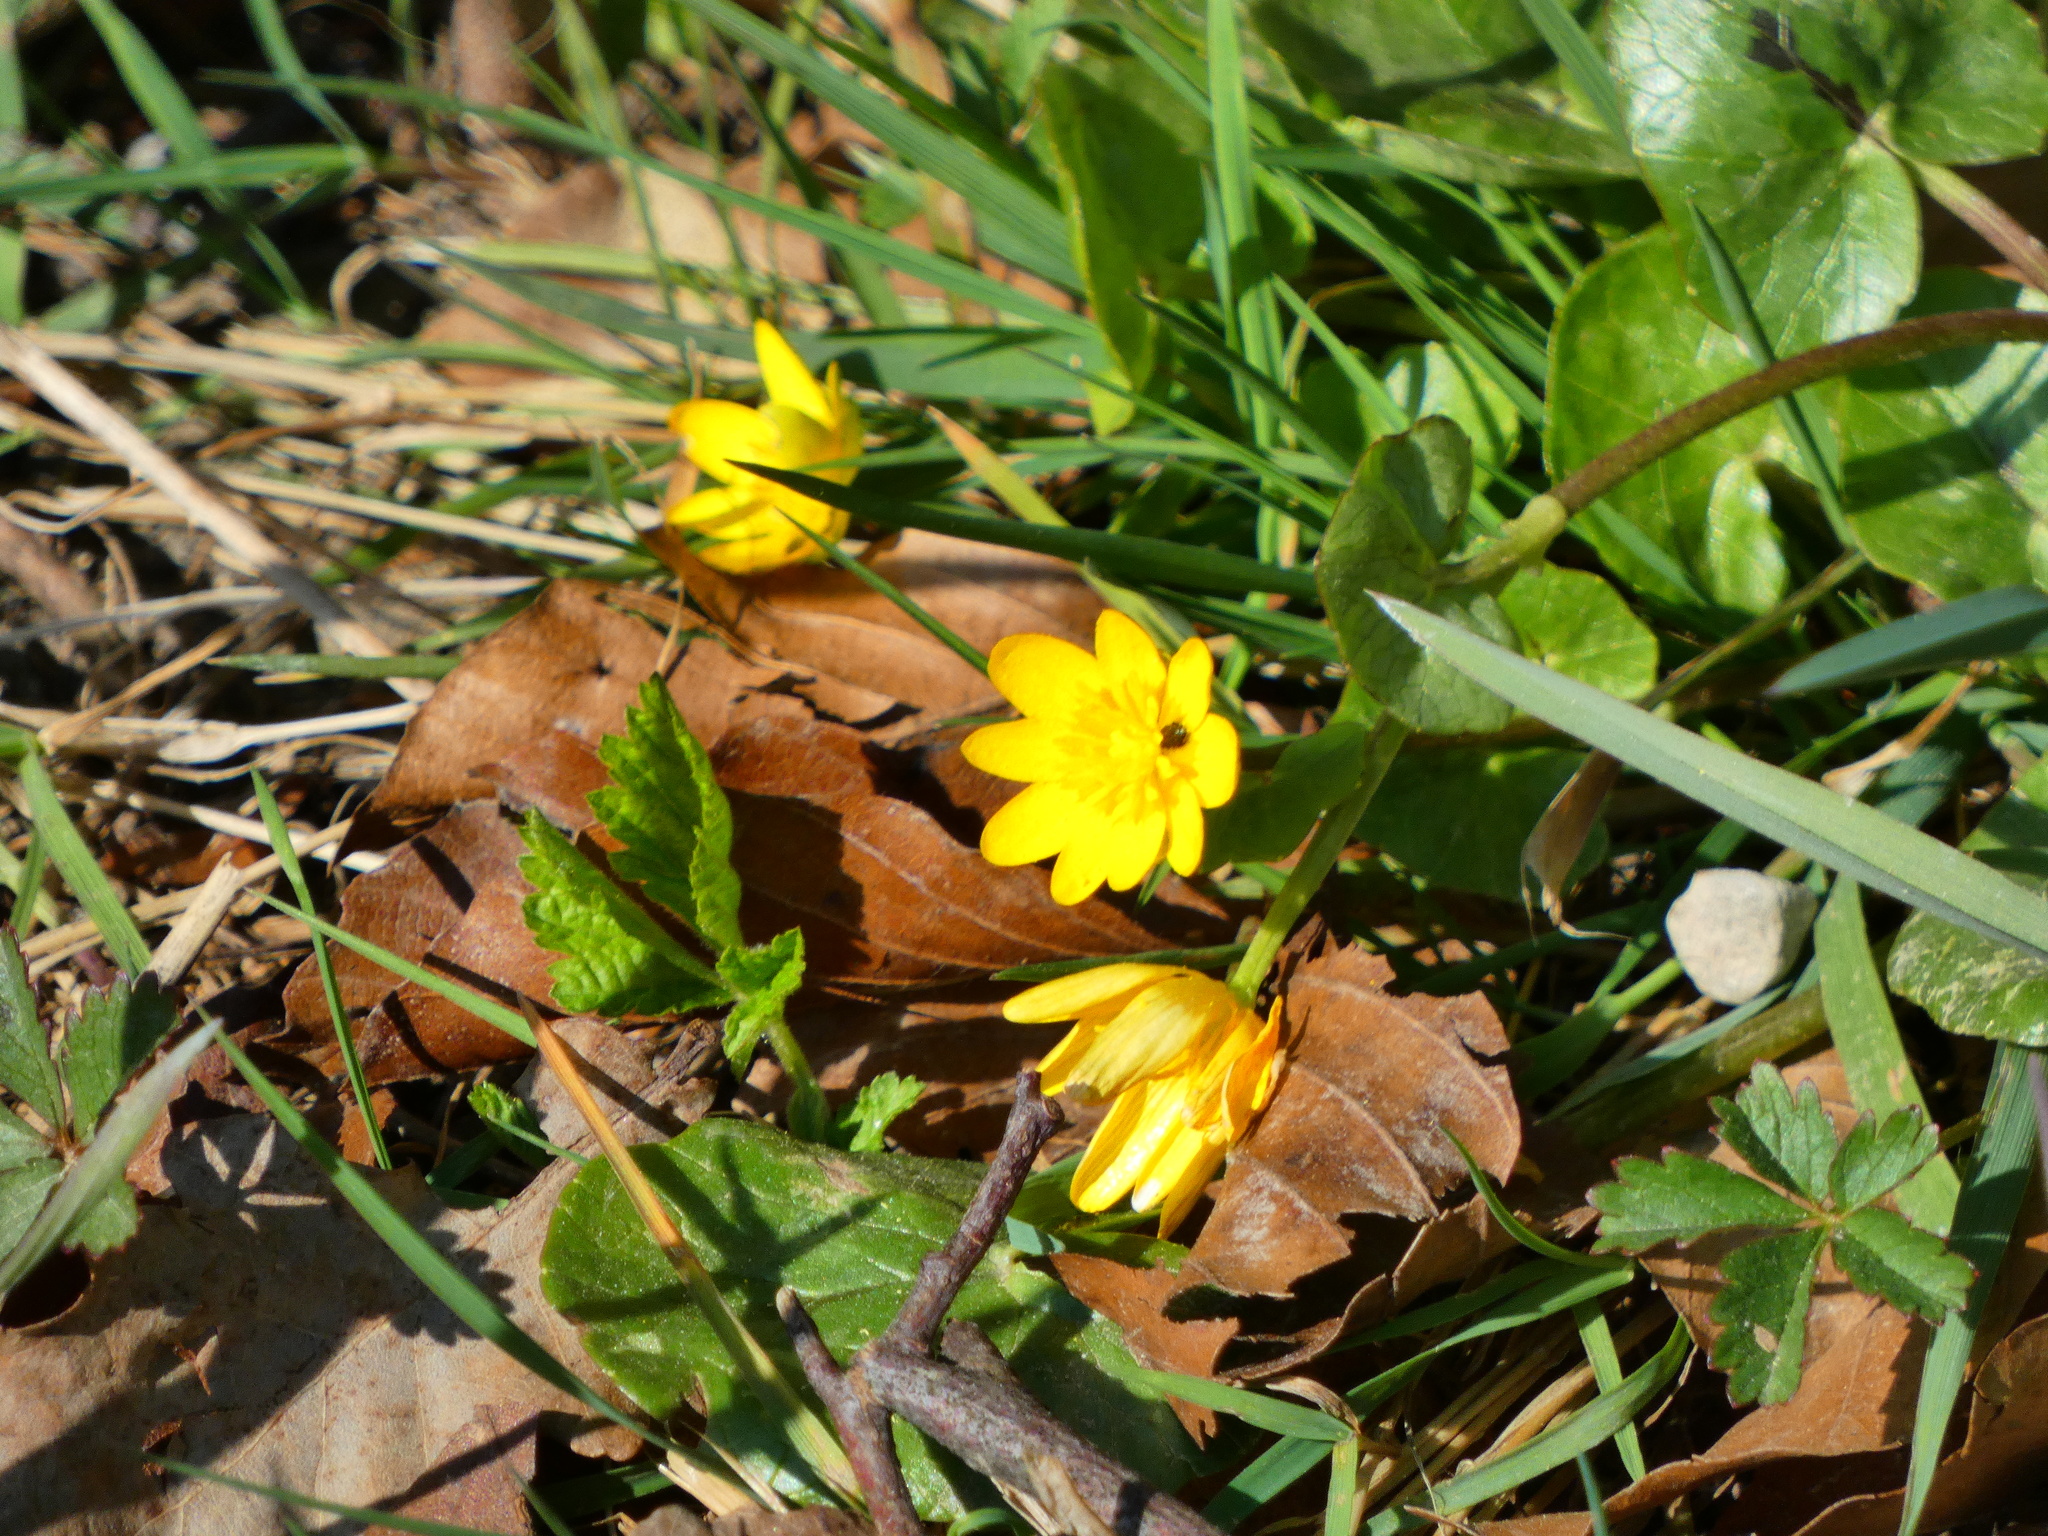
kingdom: Plantae
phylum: Tracheophyta
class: Magnoliopsida
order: Ranunculales
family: Ranunculaceae
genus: Ficaria
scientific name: Ficaria verna
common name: Lesser celandine
